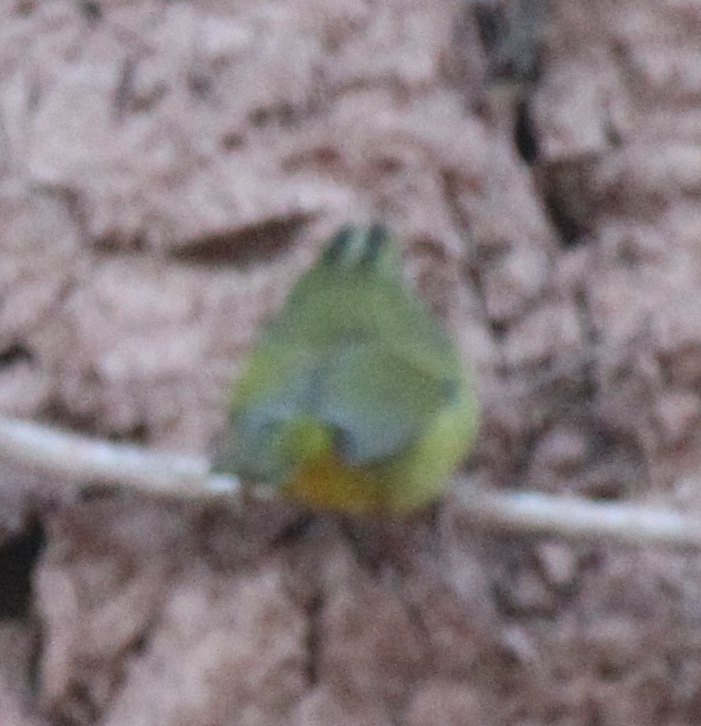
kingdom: Animalia
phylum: Chordata
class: Aves
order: Passeriformes
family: Parulidae
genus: Myiothlypis
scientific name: Myiothlypis bivittata
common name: Two-banded warbler
